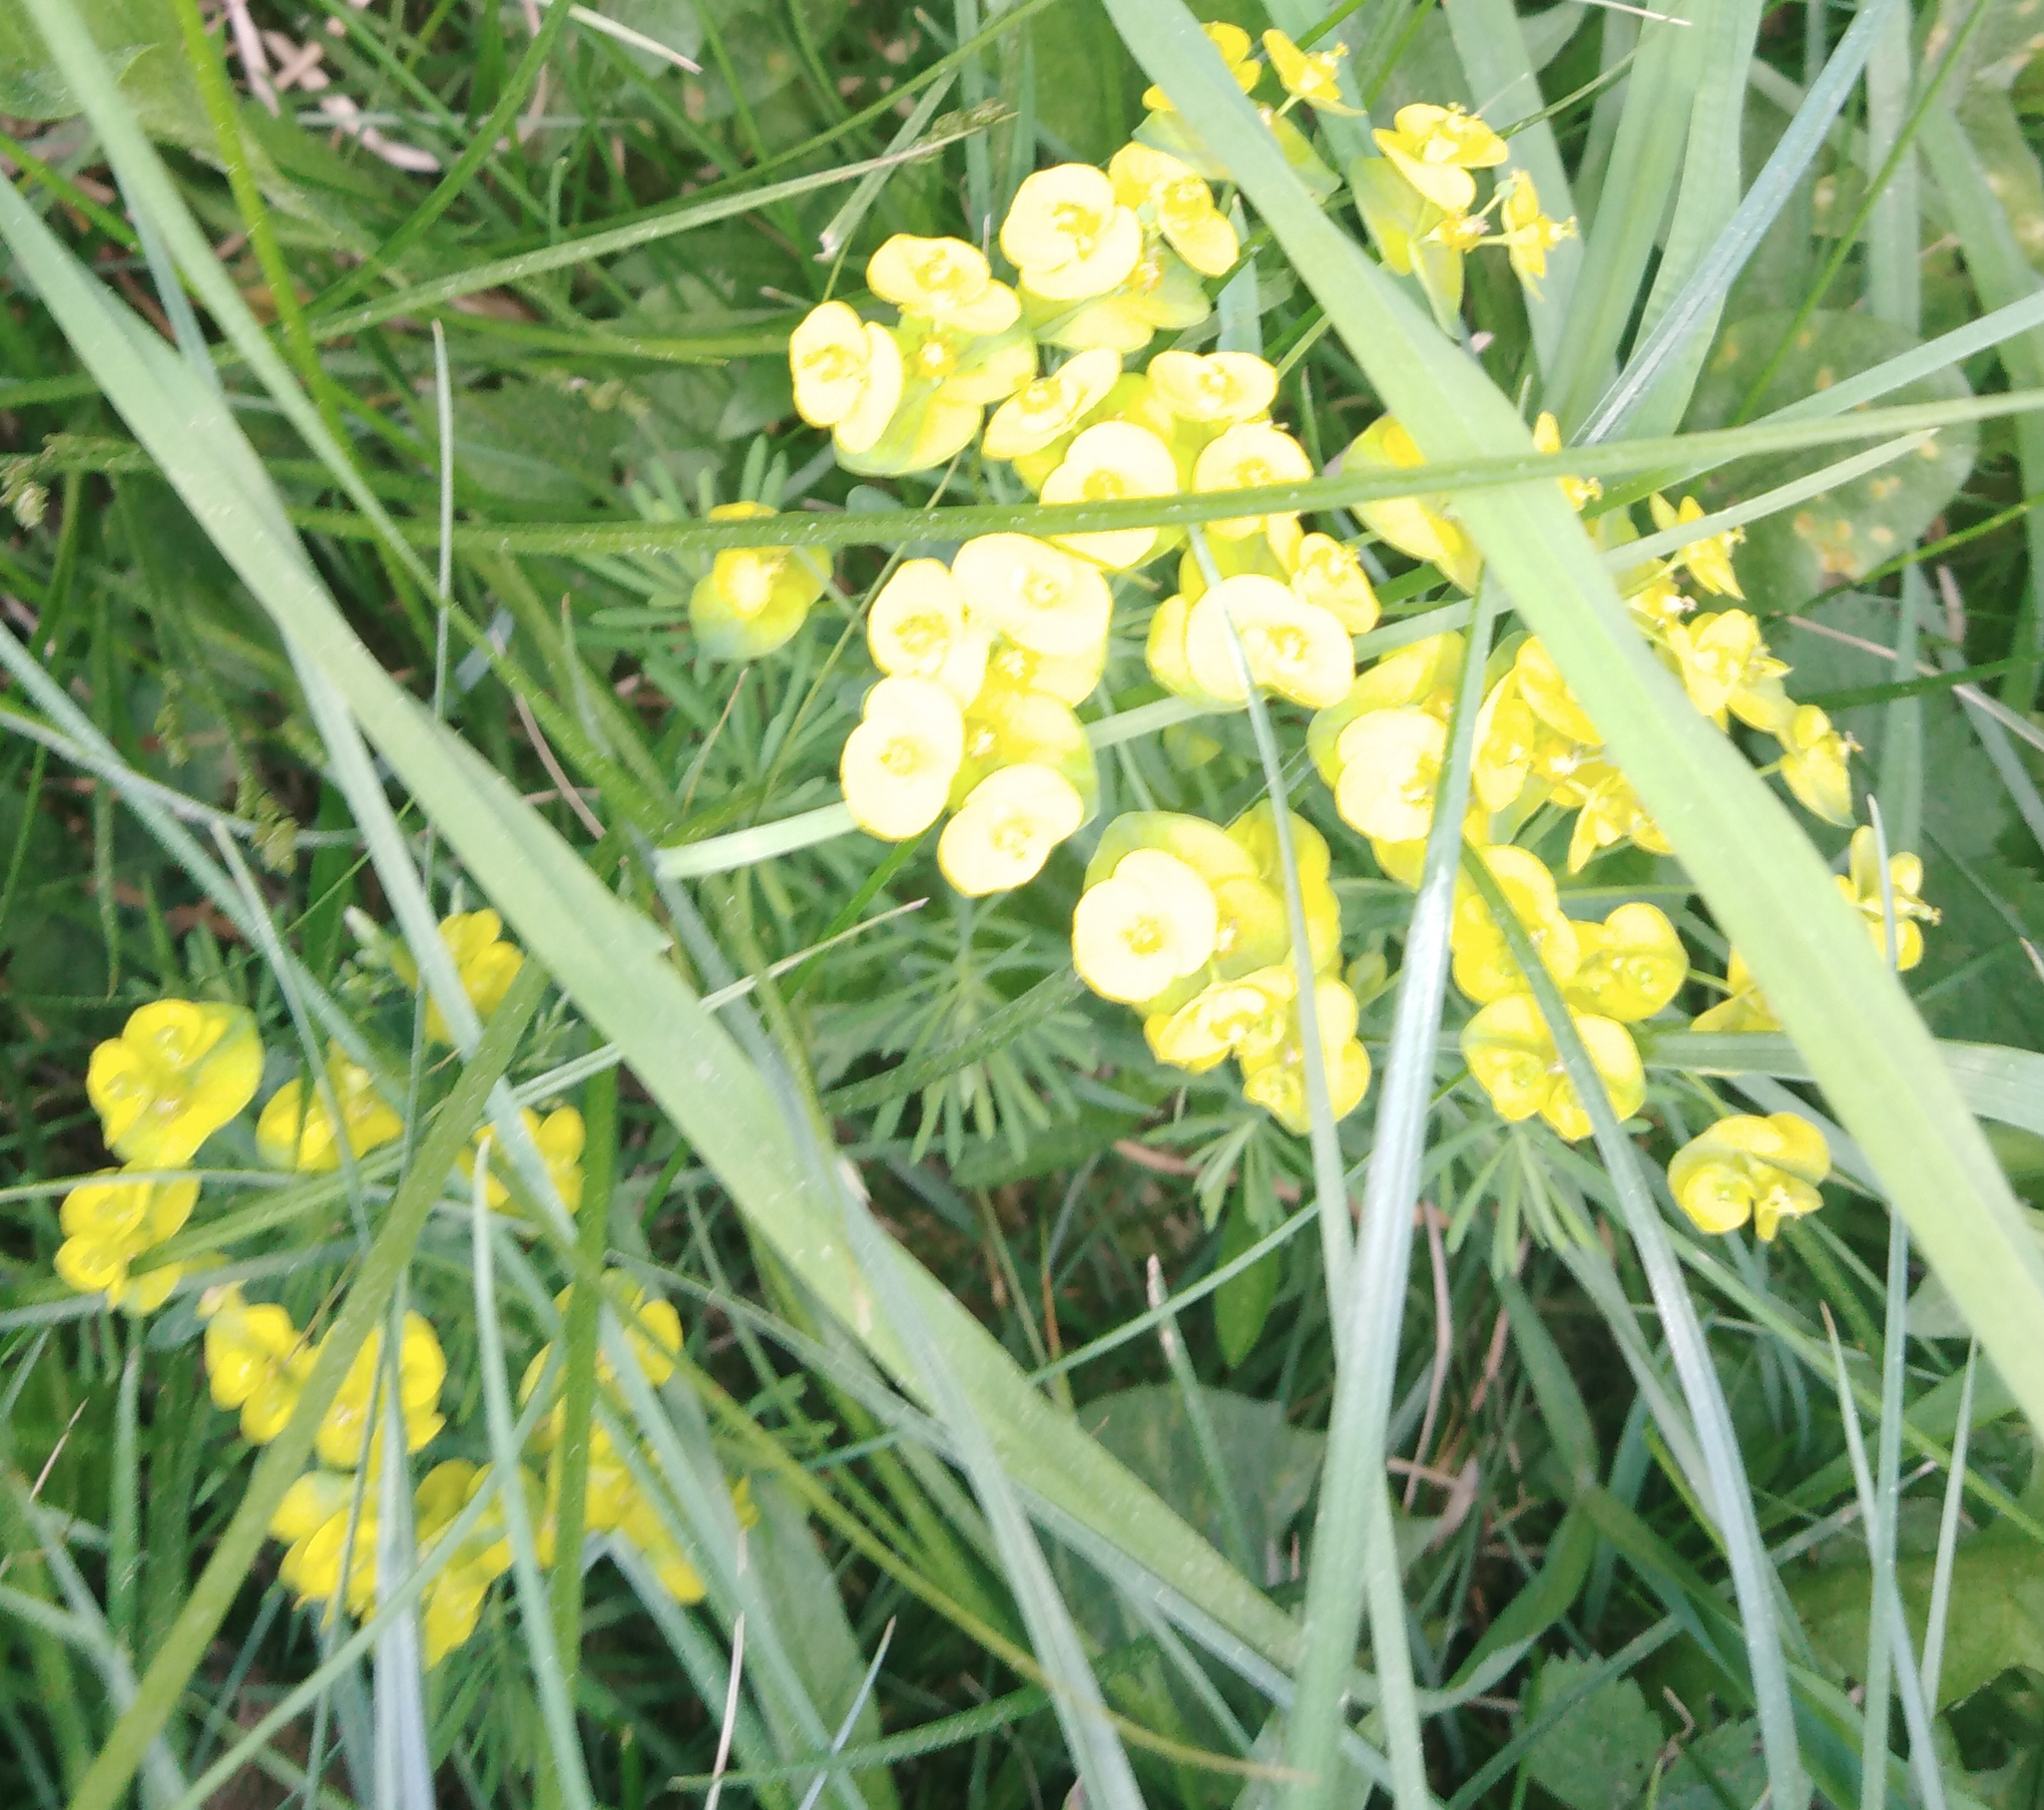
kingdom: Plantae
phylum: Tracheophyta
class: Magnoliopsida
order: Malpighiales
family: Euphorbiaceae
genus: Euphorbia
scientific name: Euphorbia virgata
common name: Leafy spurge
